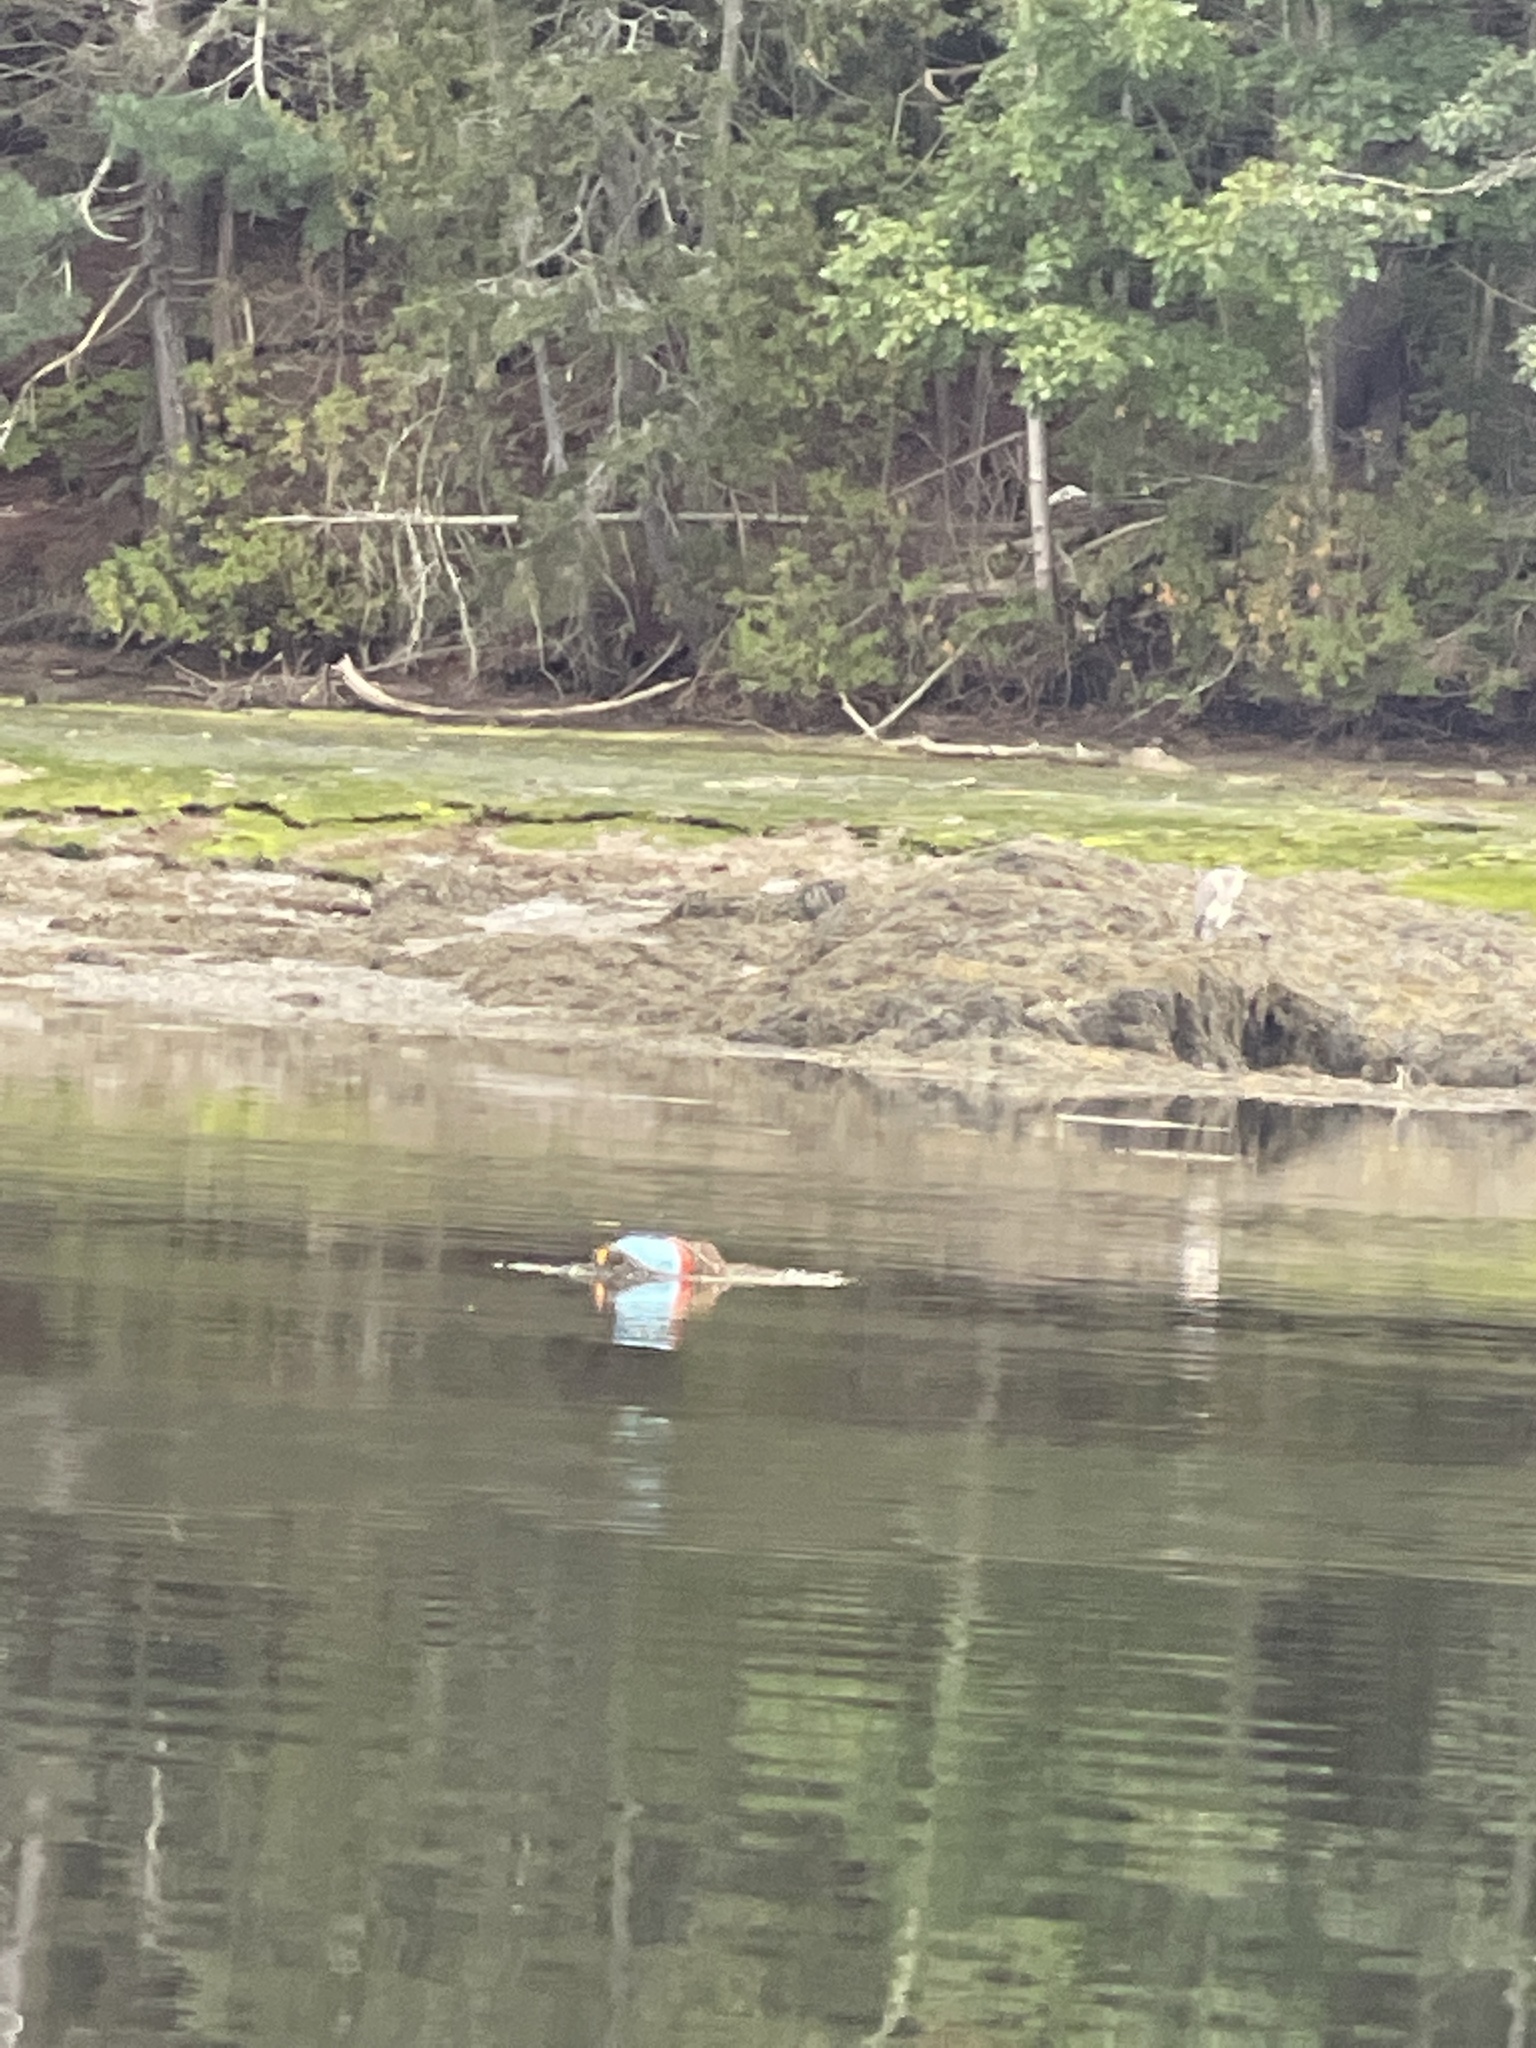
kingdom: Animalia
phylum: Chordata
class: Aves
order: Pelecaniformes
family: Ardeidae
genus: Ardea
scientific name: Ardea herodias
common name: Great blue heron
